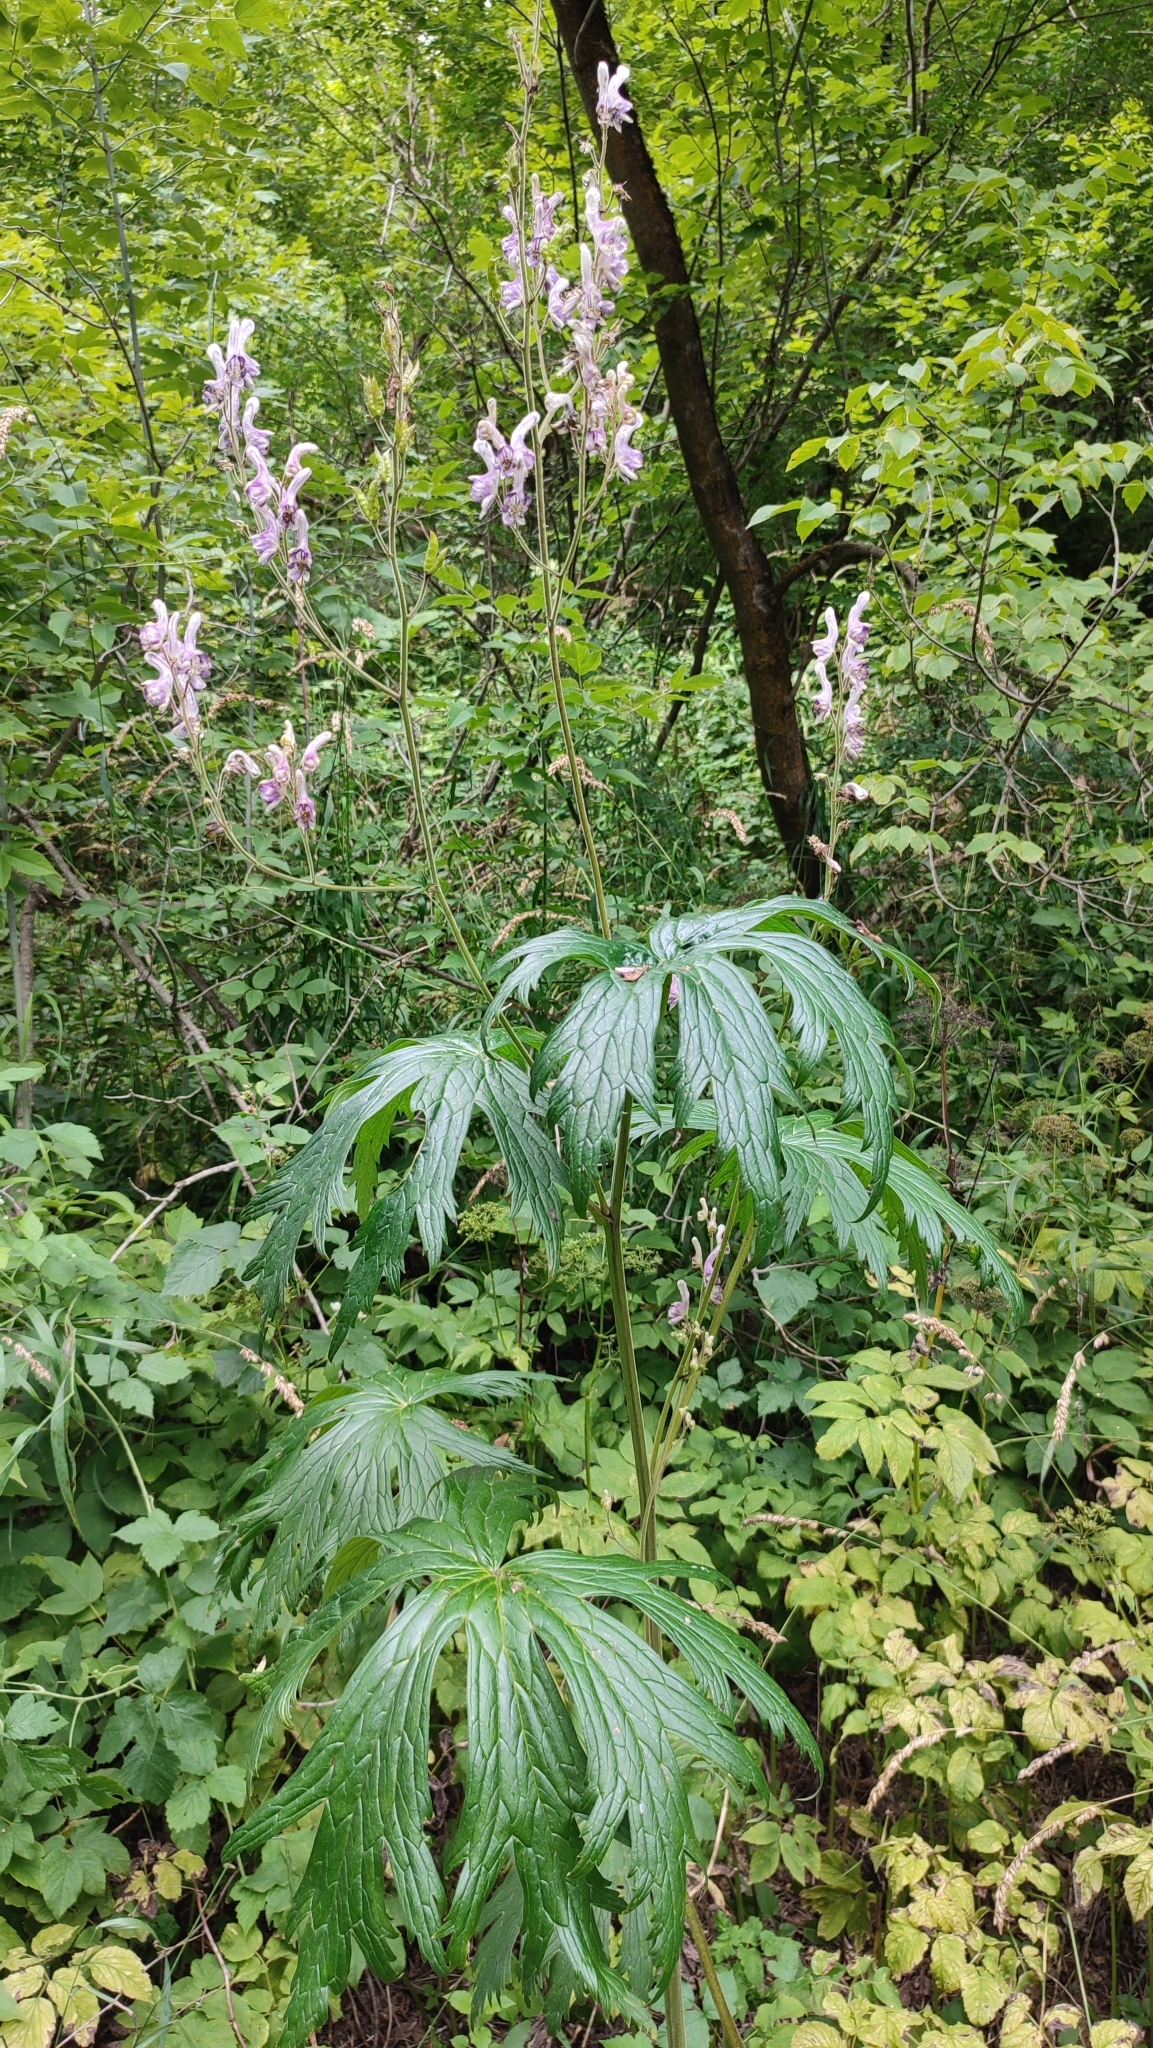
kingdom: Plantae
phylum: Tracheophyta
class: Magnoliopsida
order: Ranunculales
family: Ranunculaceae
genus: Aconitum
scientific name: Aconitum septentrionale
